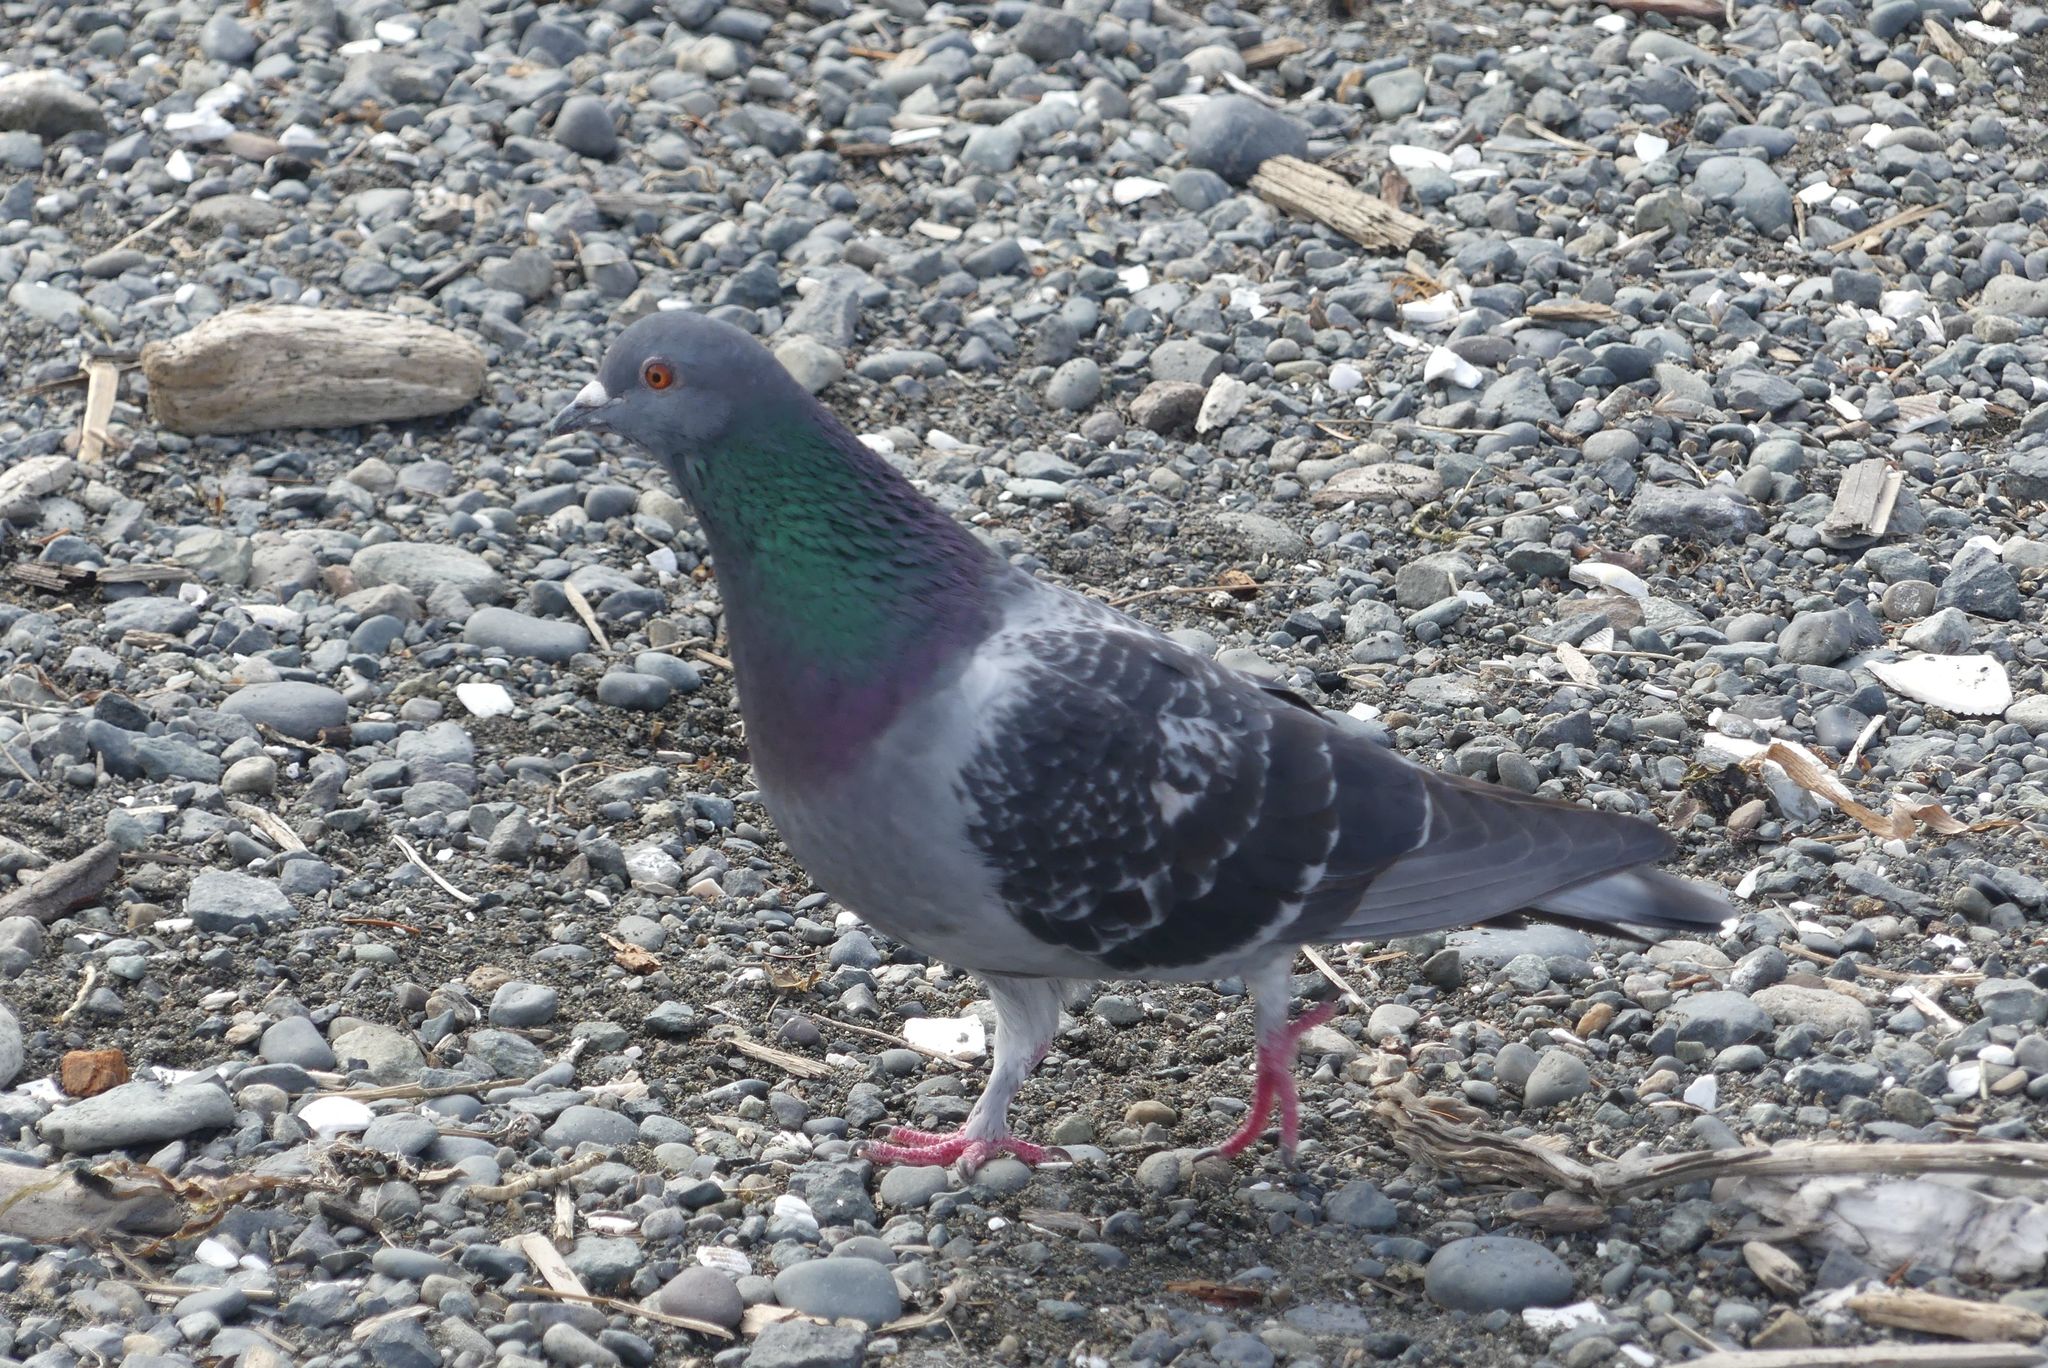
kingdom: Animalia
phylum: Chordata
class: Aves
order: Columbiformes
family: Columbidae
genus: Columba
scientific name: Columba livia
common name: Rock pigeon
